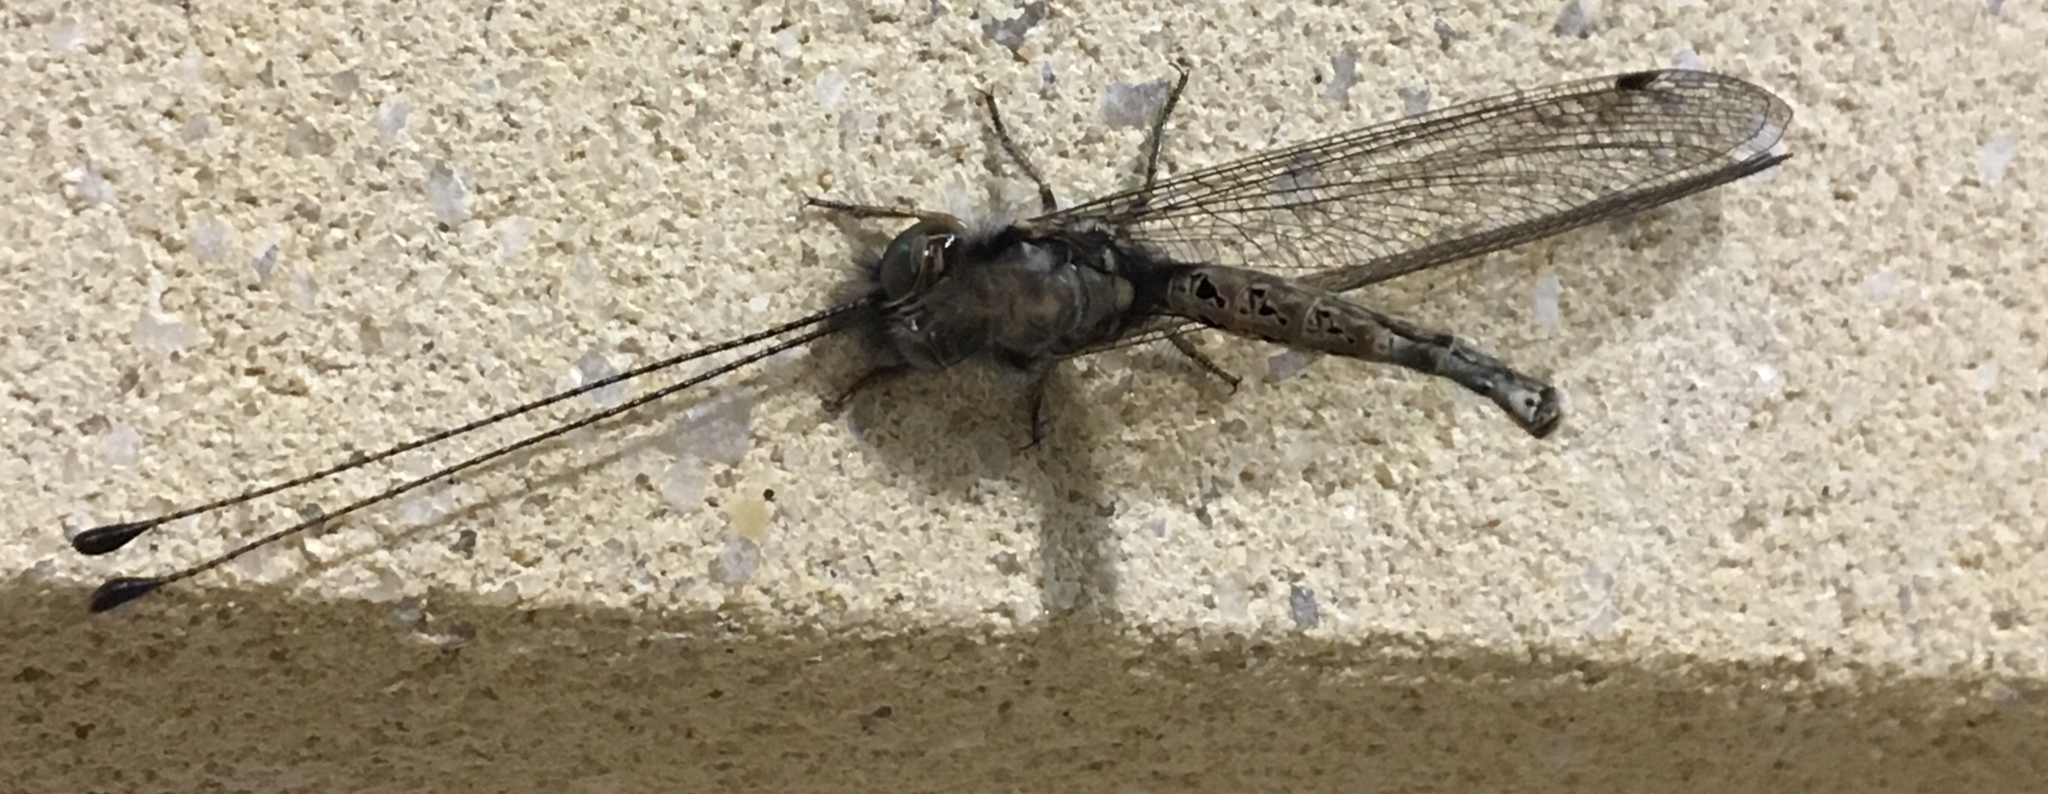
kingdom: Animalia
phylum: Arthropoda
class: Insecta
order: Neuroptera
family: Ascalaphidae
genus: Ululodes
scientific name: Ululodes macleayanus
